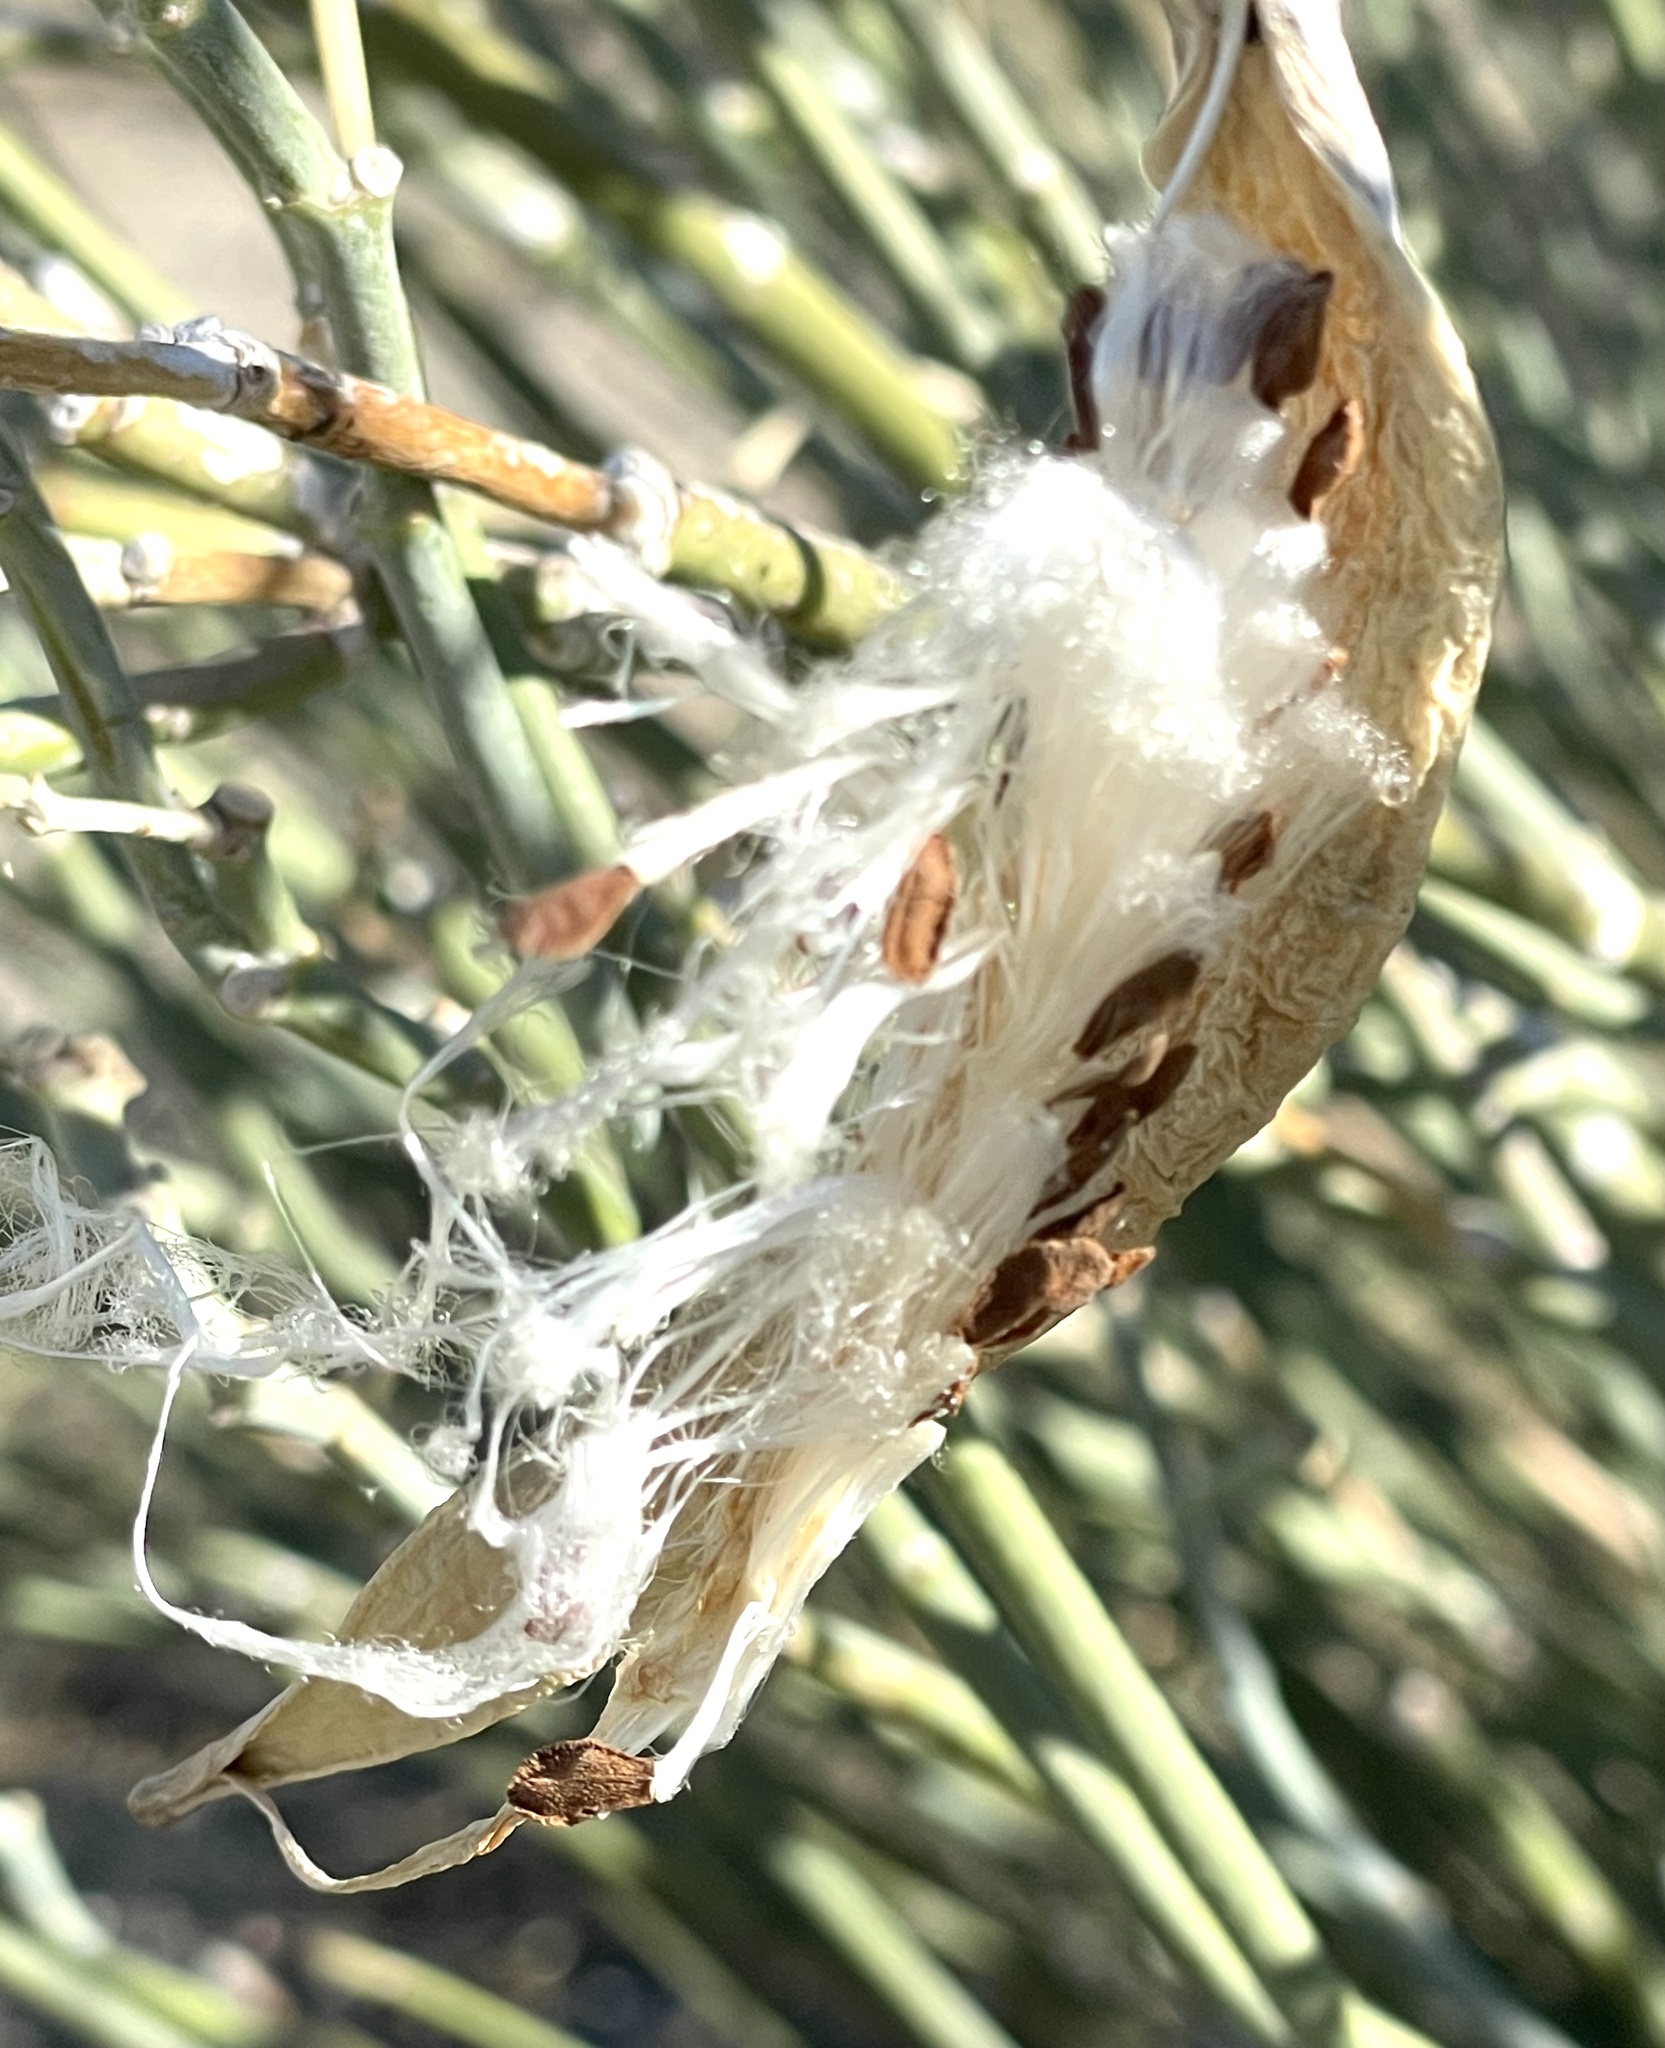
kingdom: Plantae
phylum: Tracheophyta
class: Magnoliopsida
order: Gentianales
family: Apocynaceae
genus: Asclepias
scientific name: Asclepias subulata
